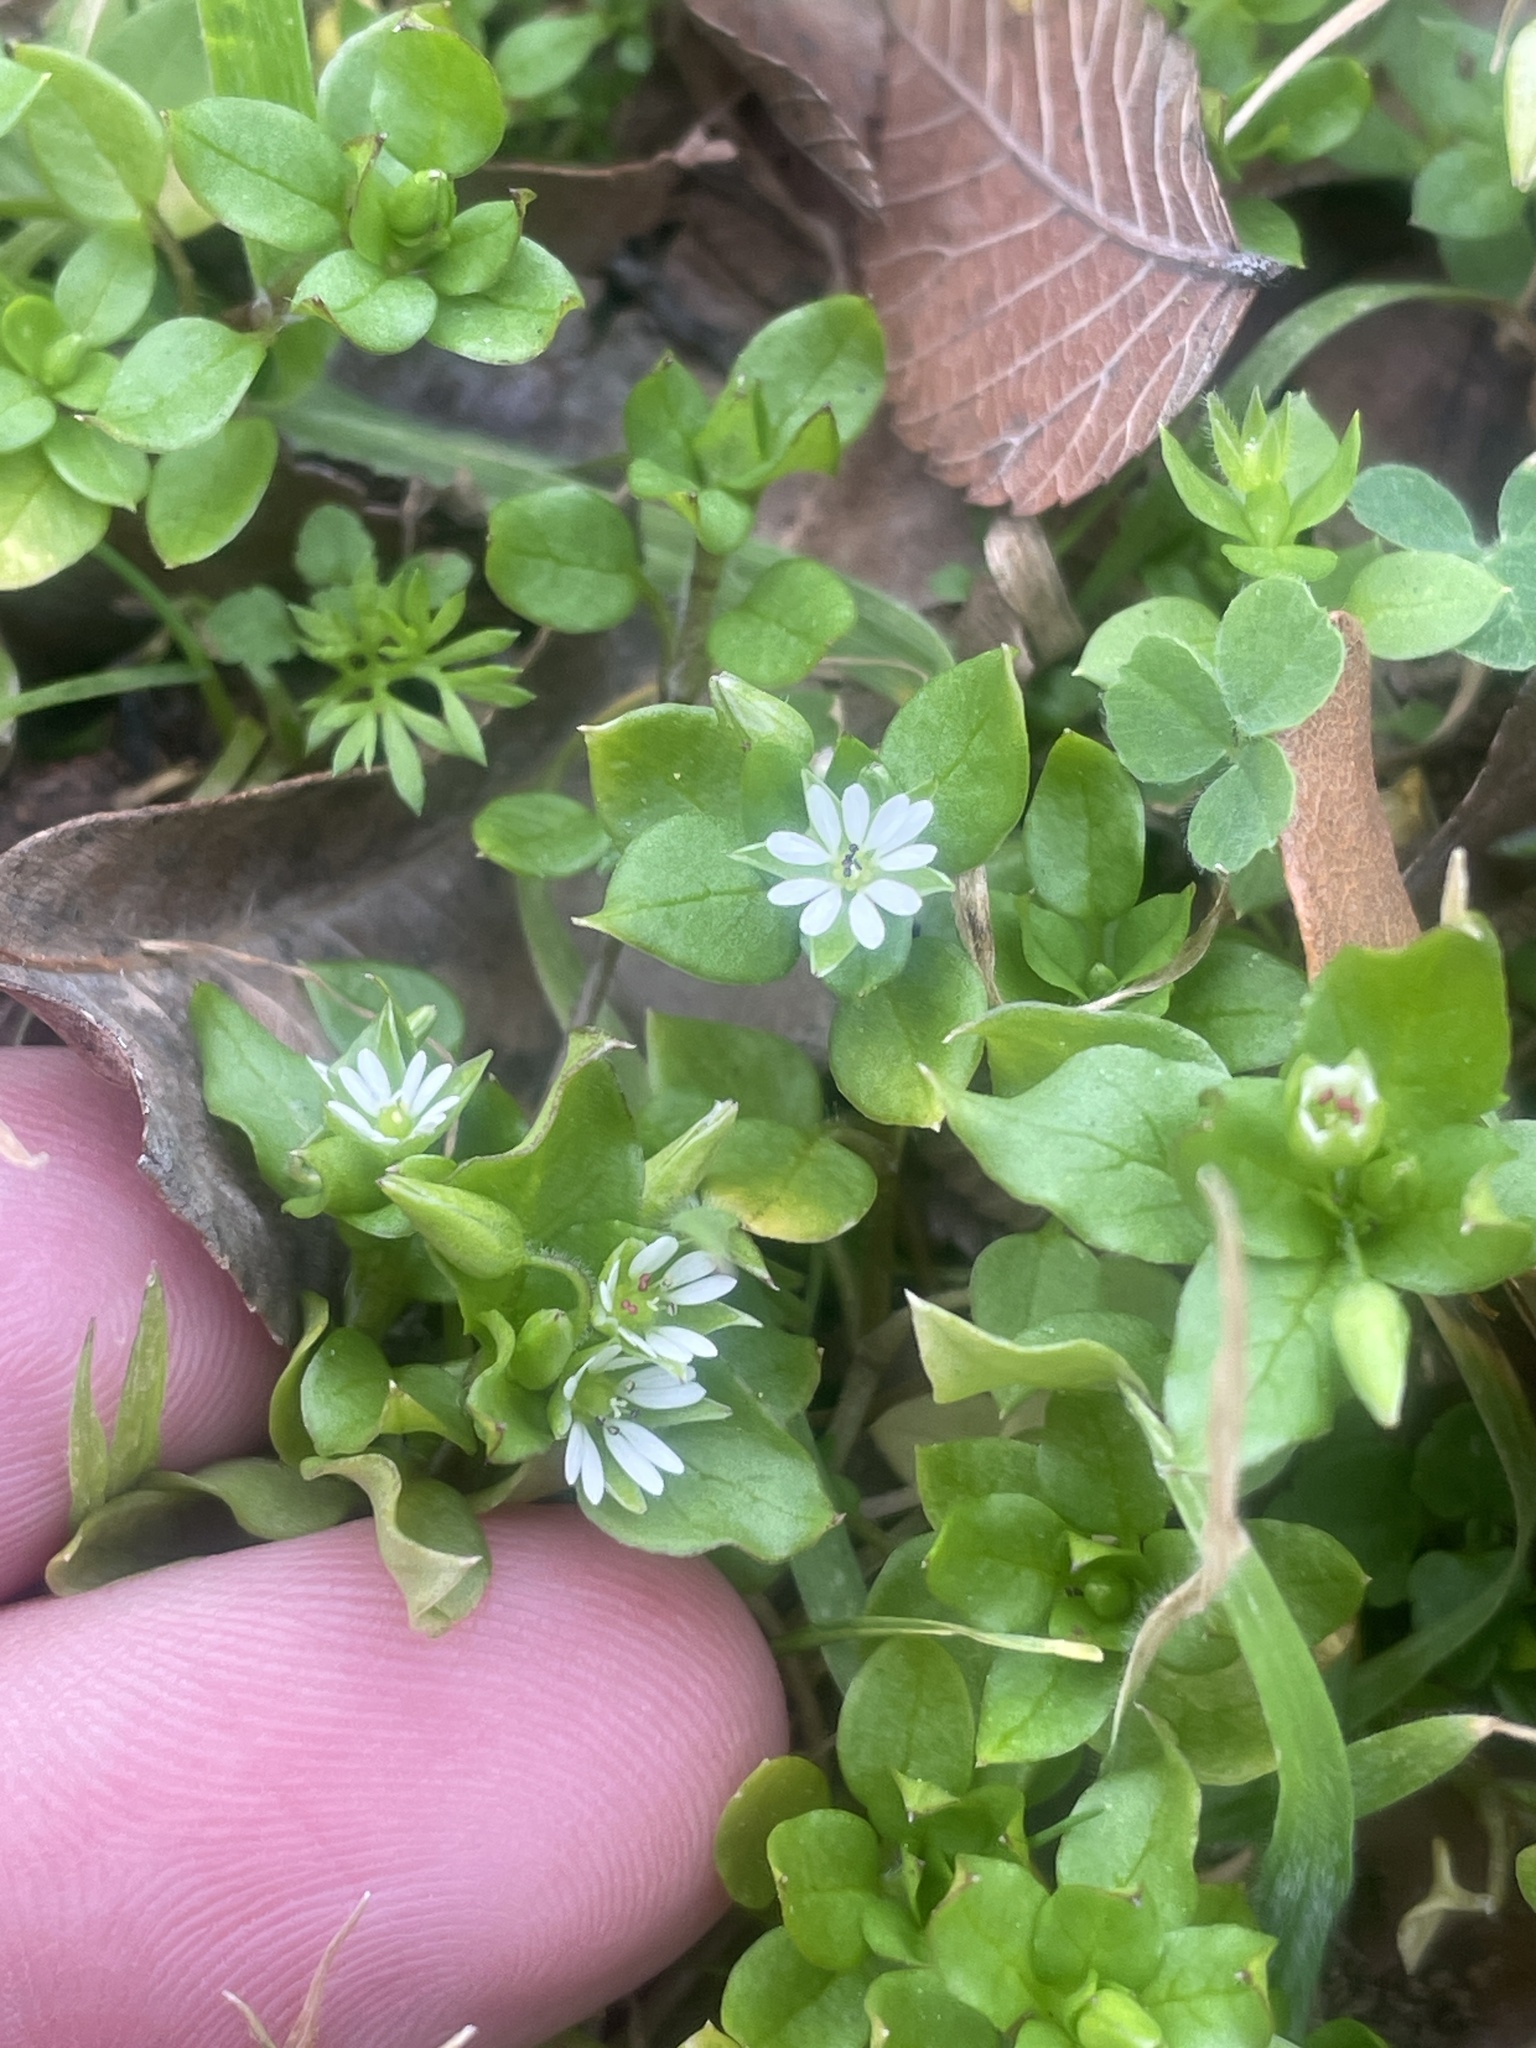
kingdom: Plantae
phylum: Tracheophyta
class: Magnoliopsida
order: Caryophyllales
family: Caryophyllaceae
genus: Stellaria
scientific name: Stellaria media
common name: Common chickweed
